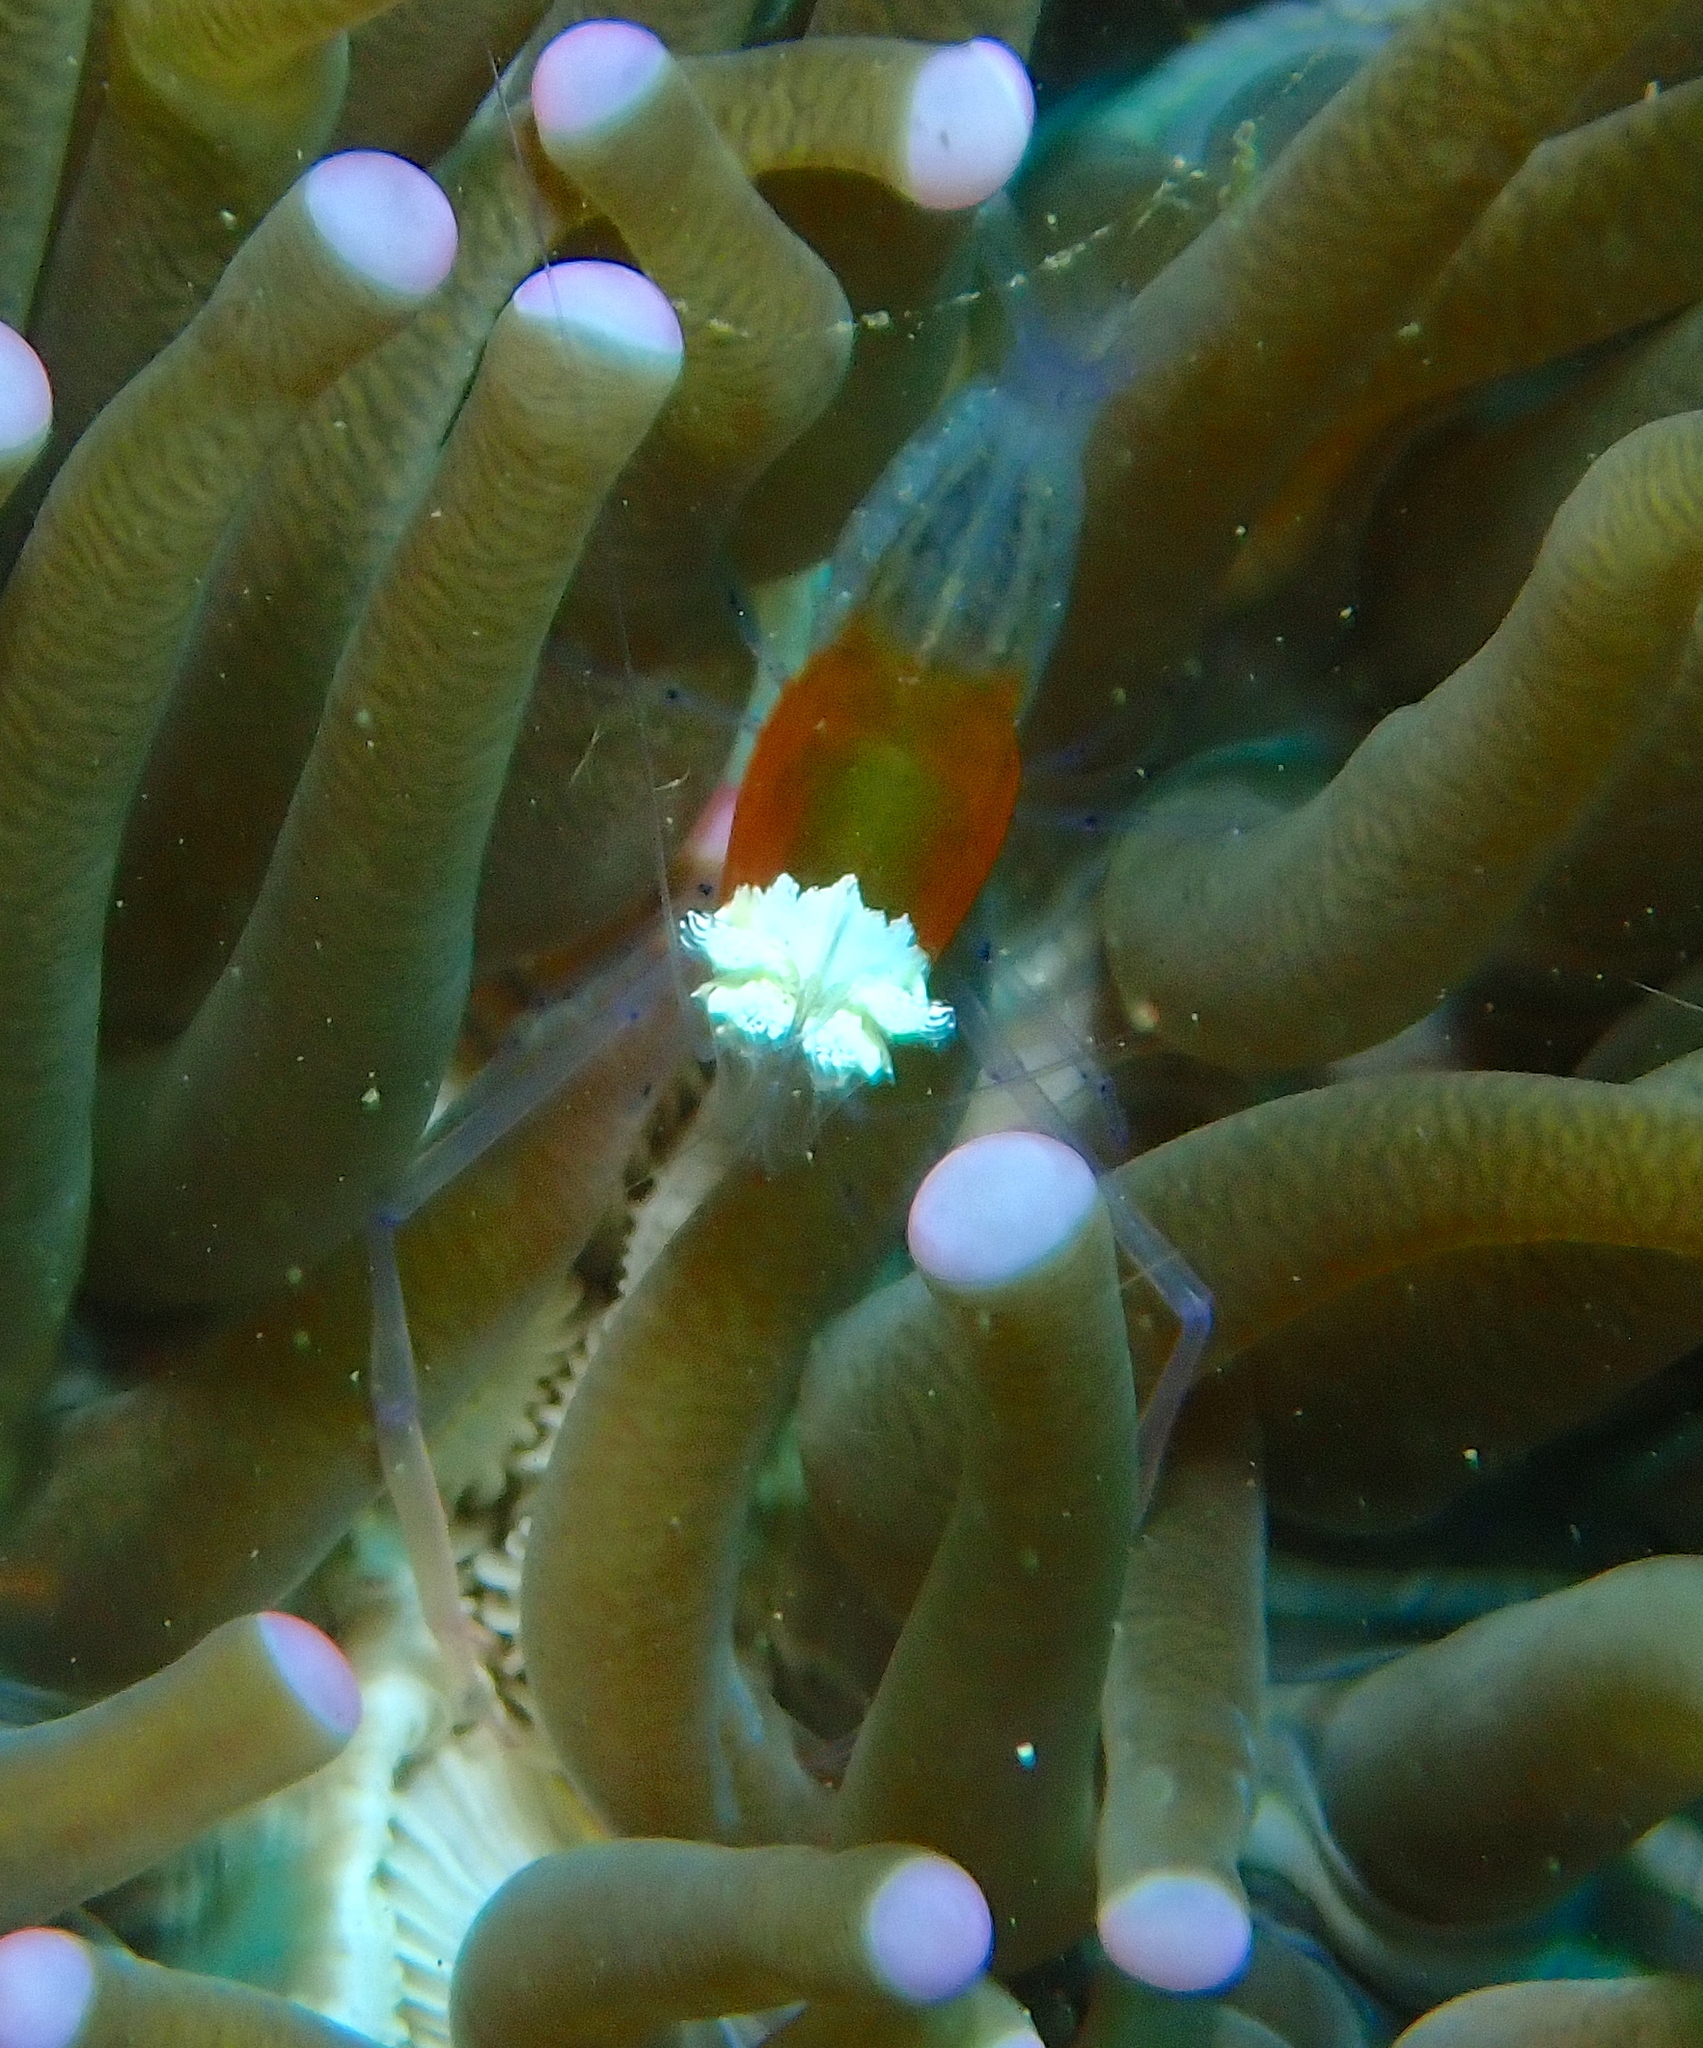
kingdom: Animalia
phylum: Arthropoda
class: Malacostraca
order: Decapoda
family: Palaemonidae
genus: Cuapetes
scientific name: Cuapetes kororensis
